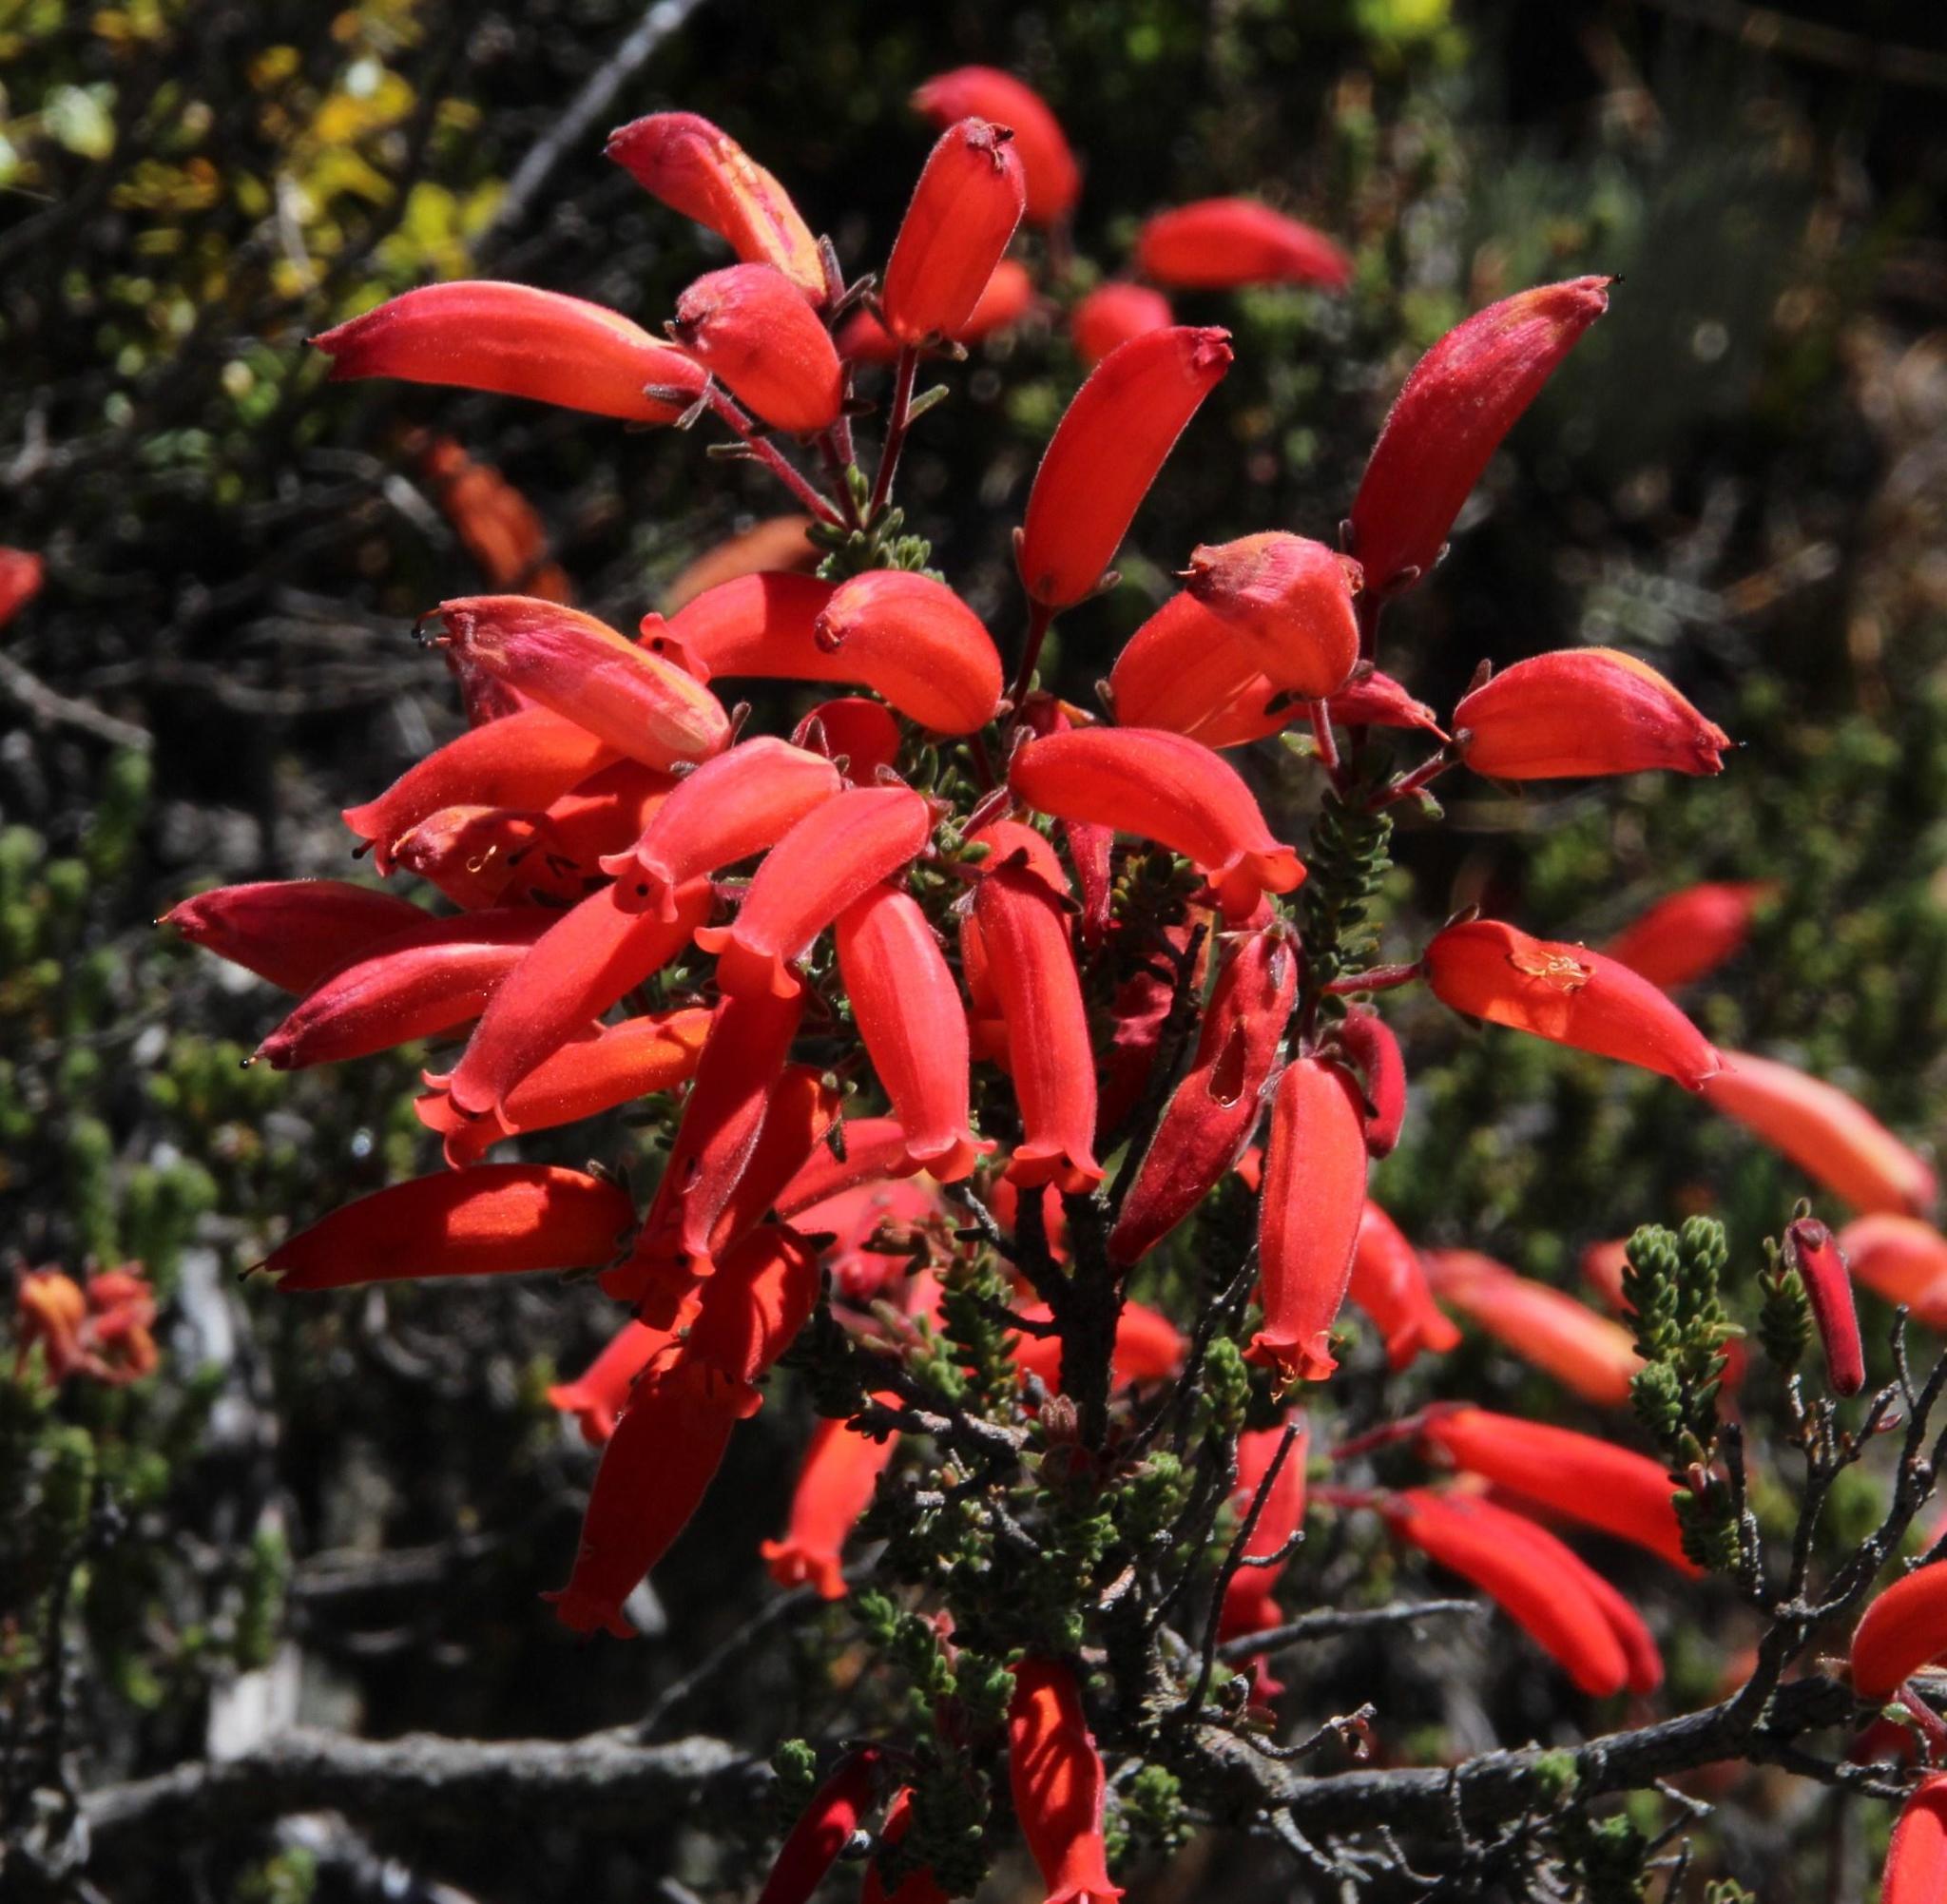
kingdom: Plantae
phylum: Tracheophyta
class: Magnoliopsida
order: Ericales
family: Ericaceae
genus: Erica
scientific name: Erica tumida
